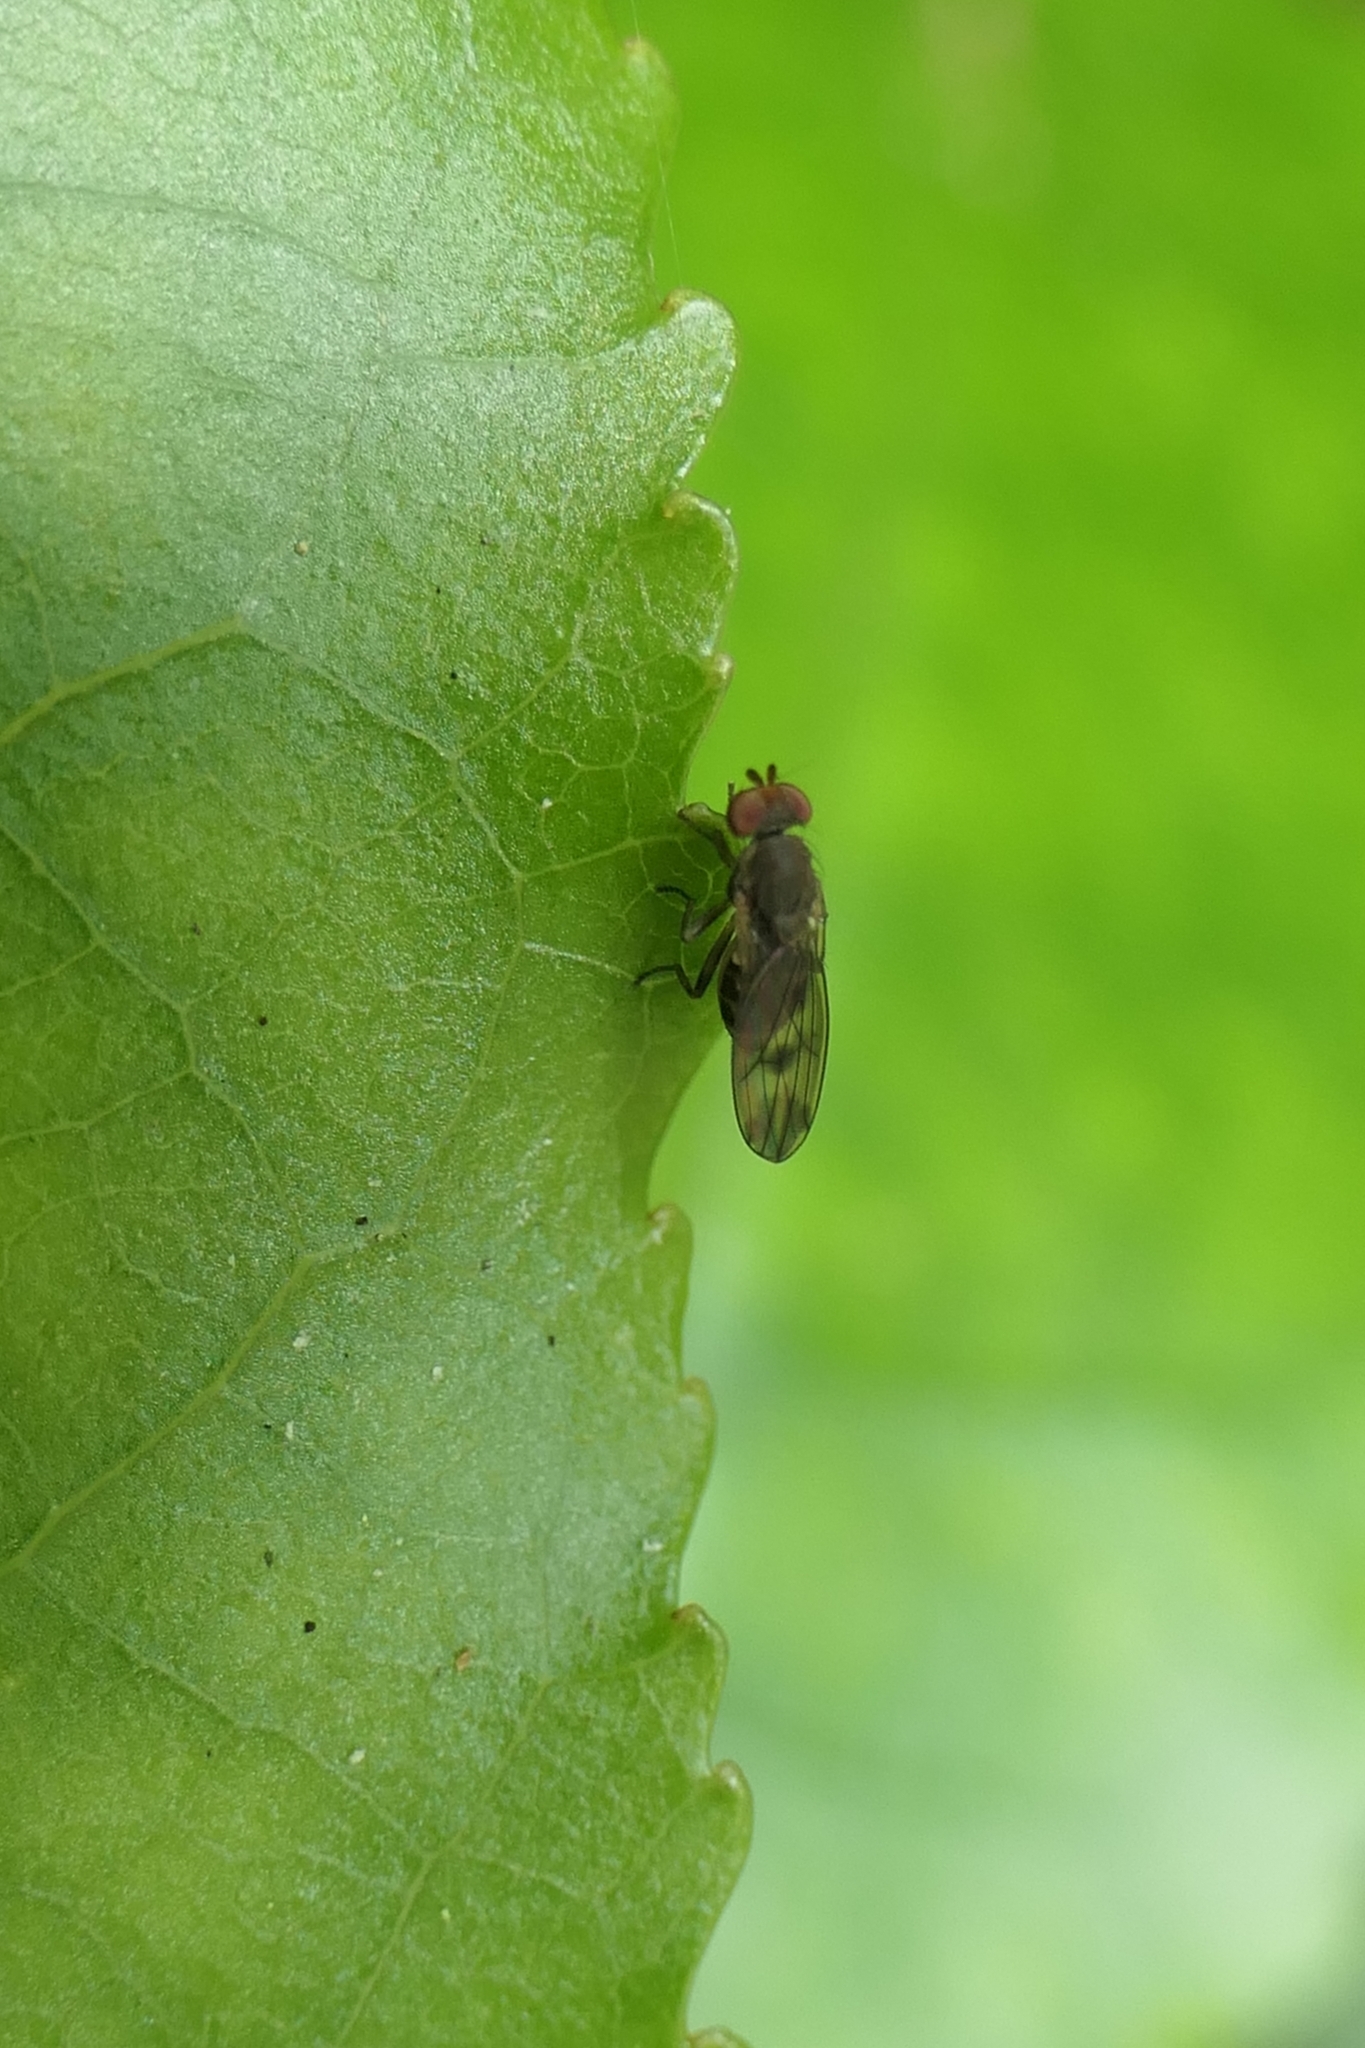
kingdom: Animalia
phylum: Arthropoda
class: Insecta
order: Diptera
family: Heleomyzidae
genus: Fenwickia
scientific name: Fenwickia hirsuta
